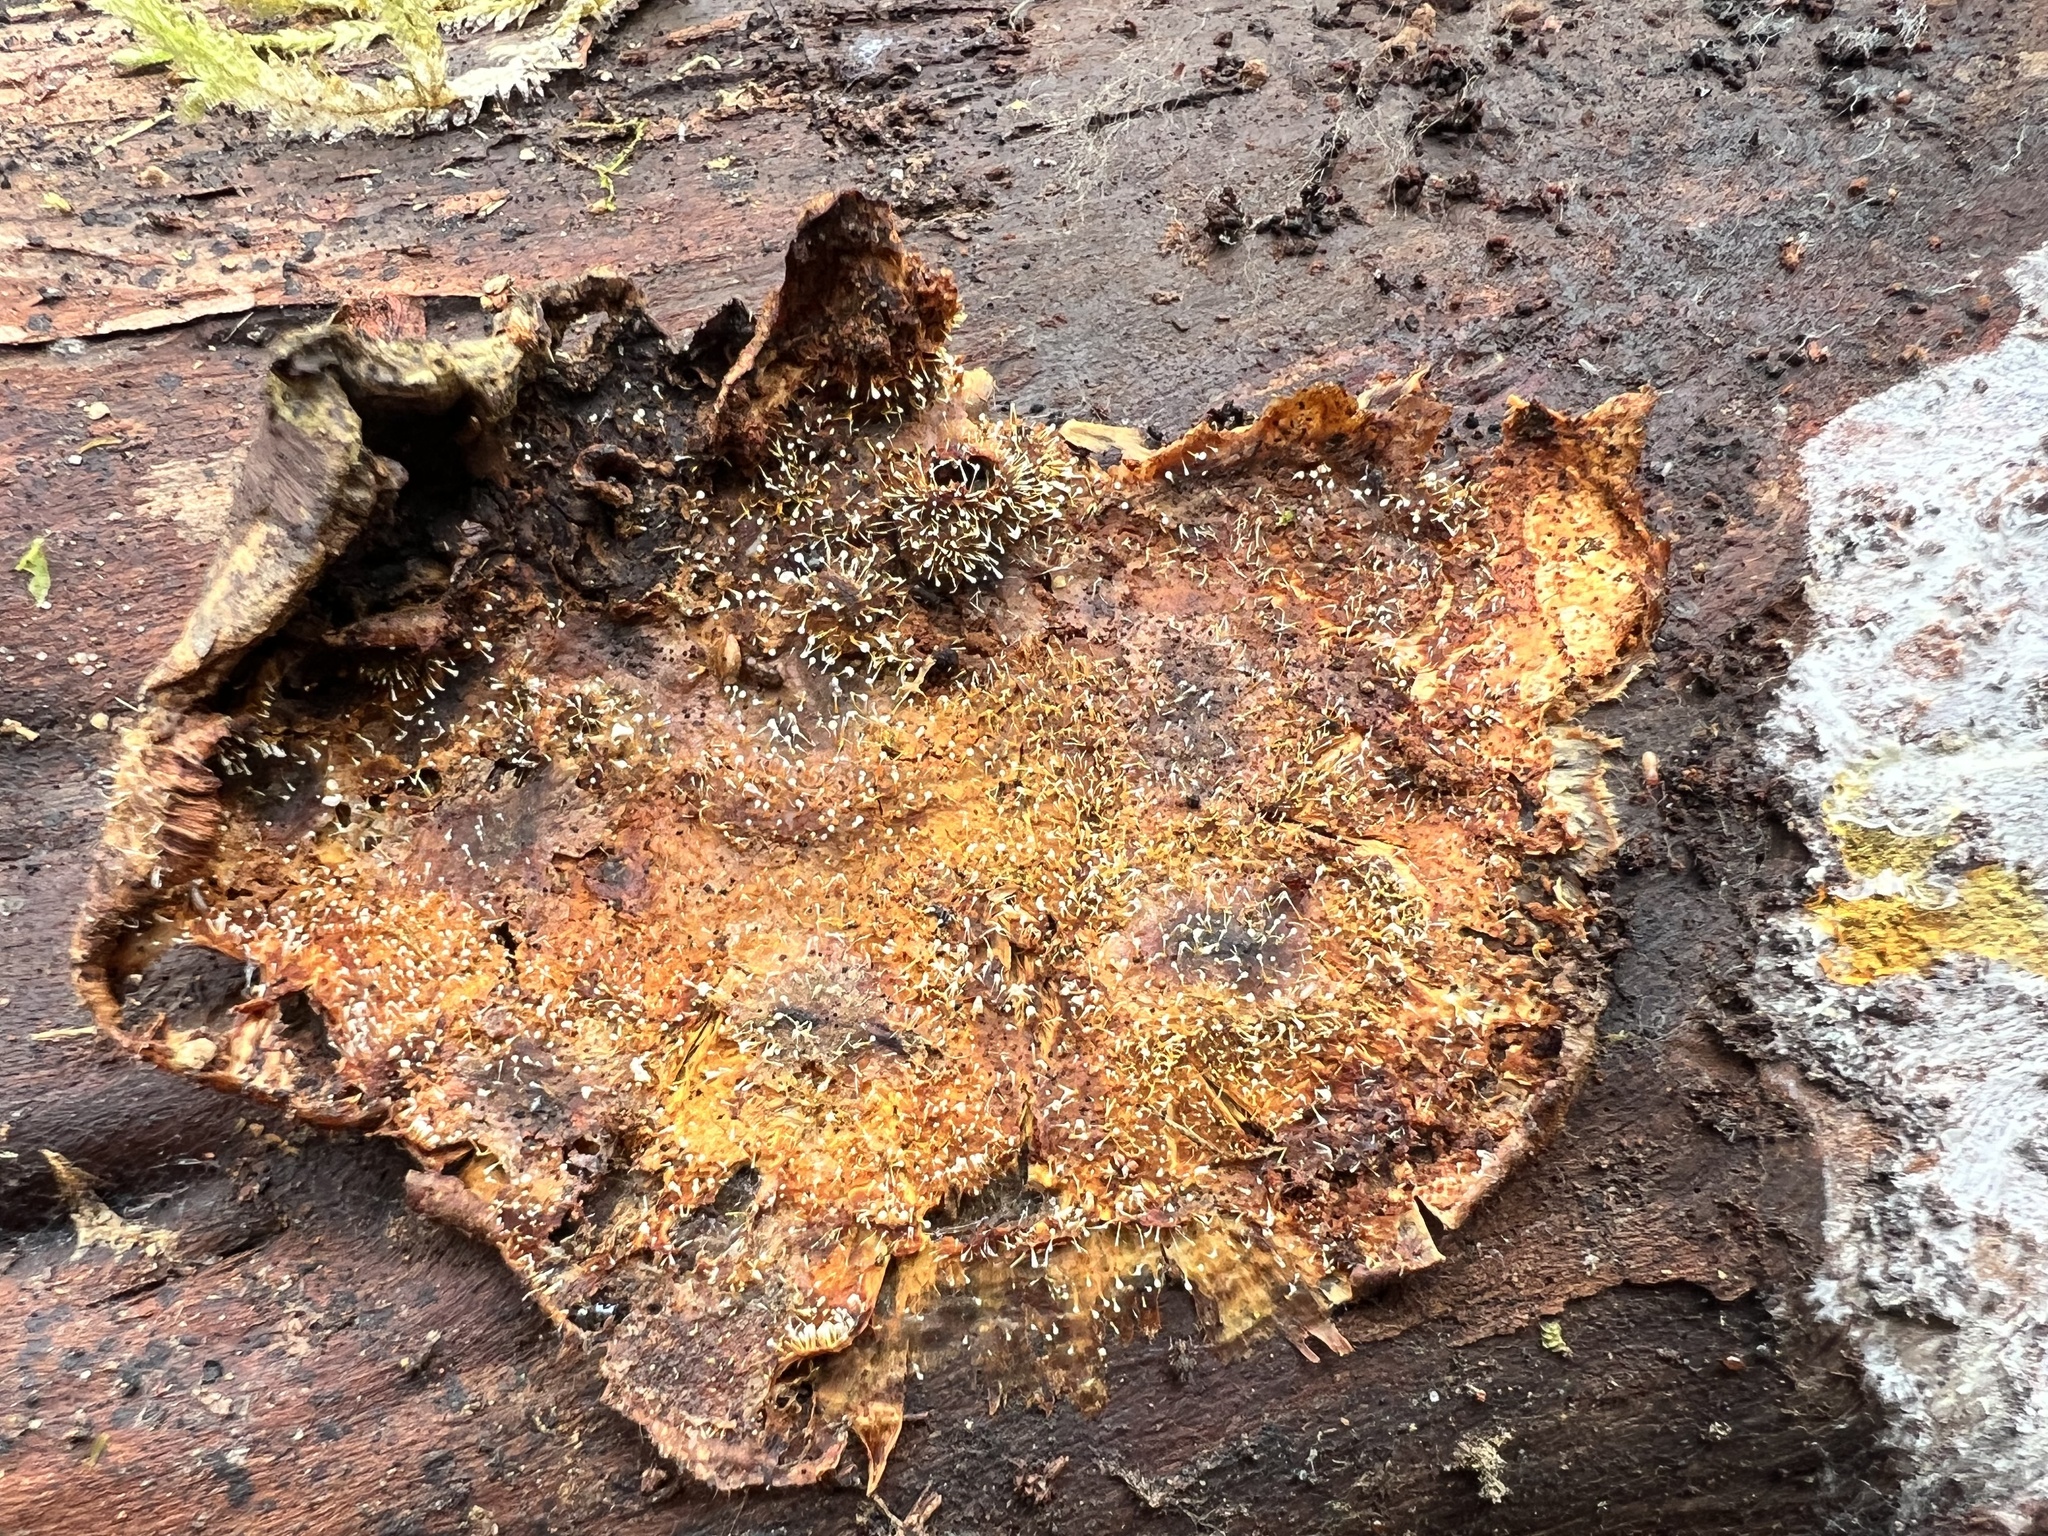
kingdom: Fungi
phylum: Ascomycota
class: Sordariomycetes
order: Hypocreales
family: Hypocreaceae
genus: Gliocladium
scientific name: Gliocladium polyporicola
